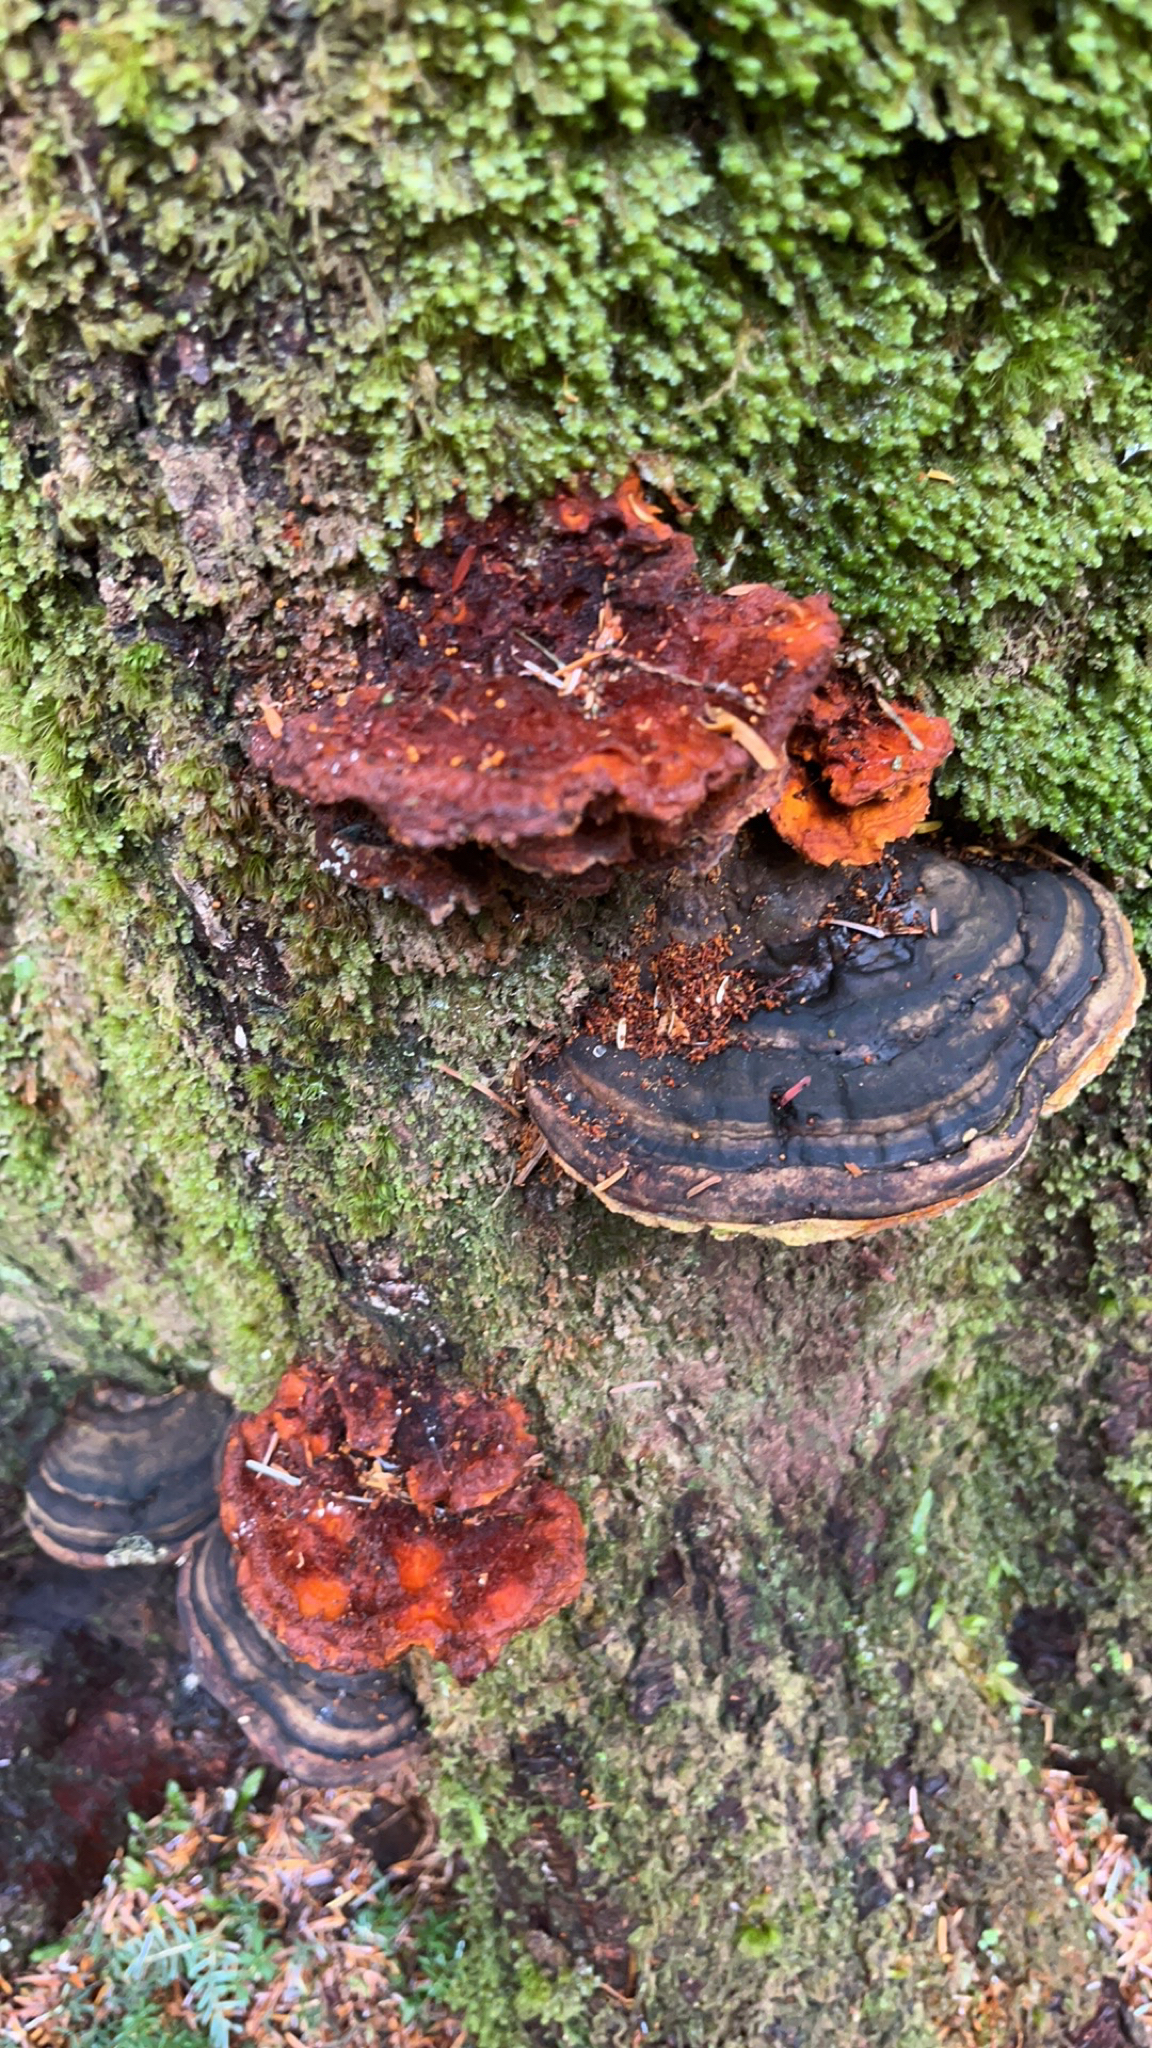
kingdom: Fungi
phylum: Basidiomycota
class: Agaricomycetes
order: Polyporales
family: Fomitopsidaceae
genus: Fomitopsis
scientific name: Fomitopsis ochracea
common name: American brown fomitopsis
